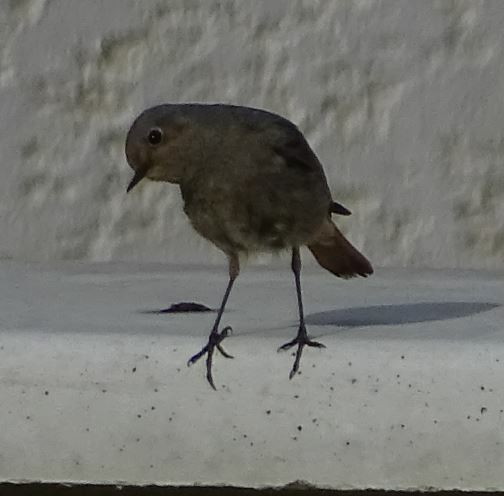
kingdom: Animalia
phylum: Chordata
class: Aves
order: Passeriformes
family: Muscicapidae
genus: Phoenicurus
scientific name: Phoenicurus ochruros
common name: Black redstart
